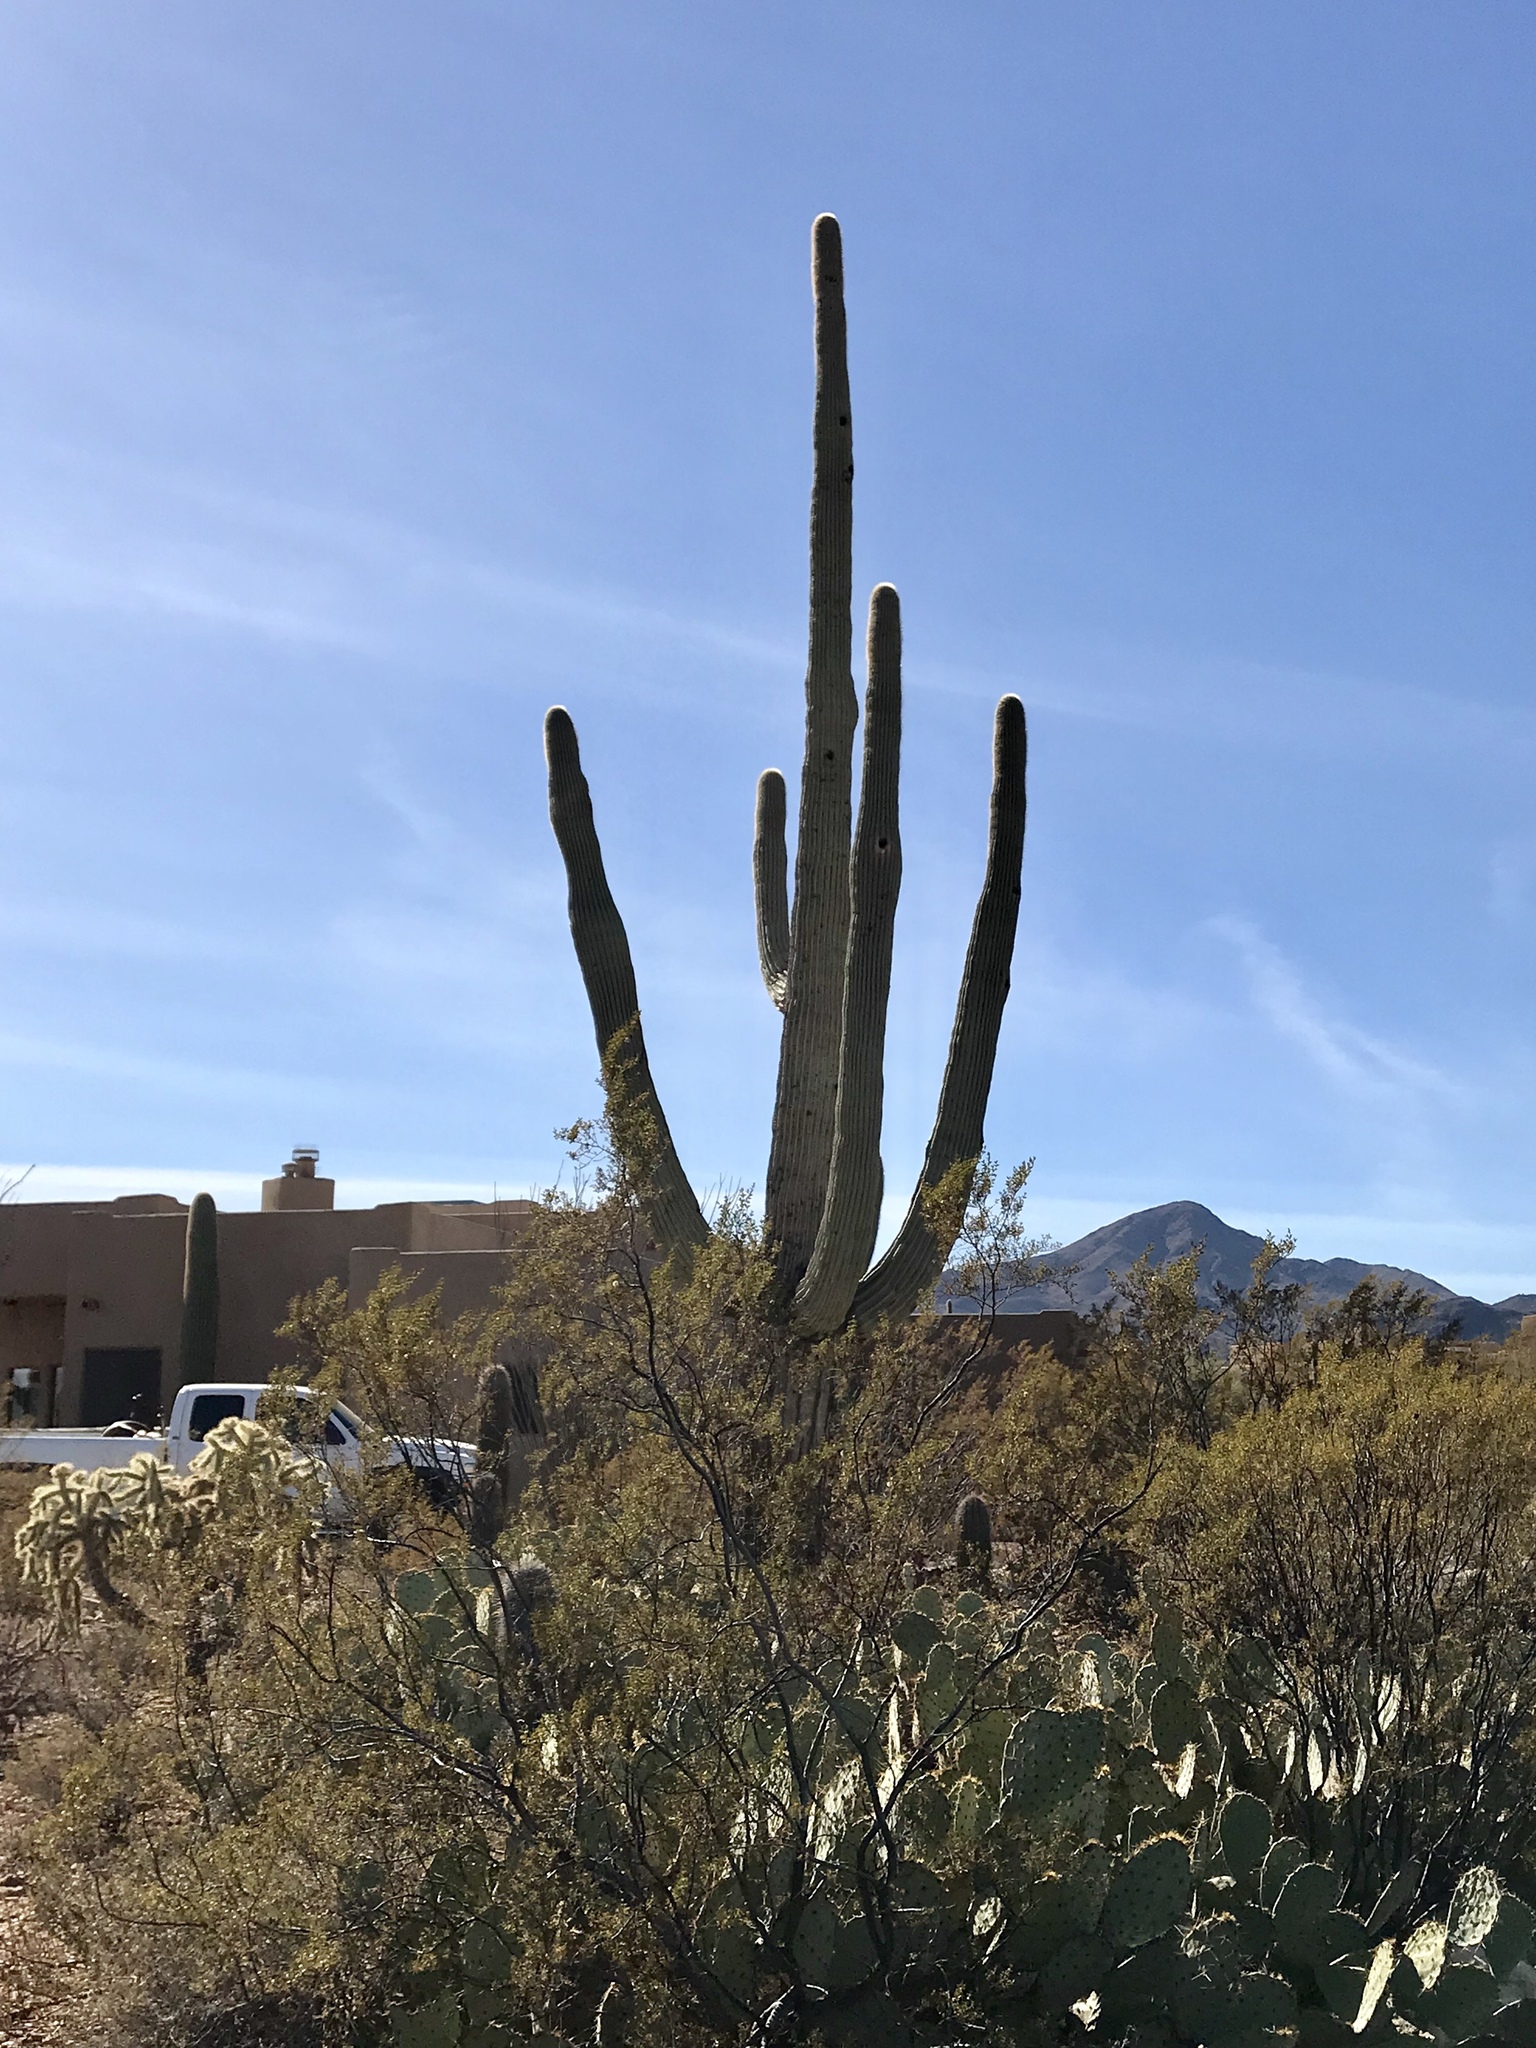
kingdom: Plantae
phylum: Tracheophyta
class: Magnoliopsida
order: Caryophyllales
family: Cactaceae
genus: Carnegiea
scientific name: Carnegiea gigantea
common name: Saguaro
